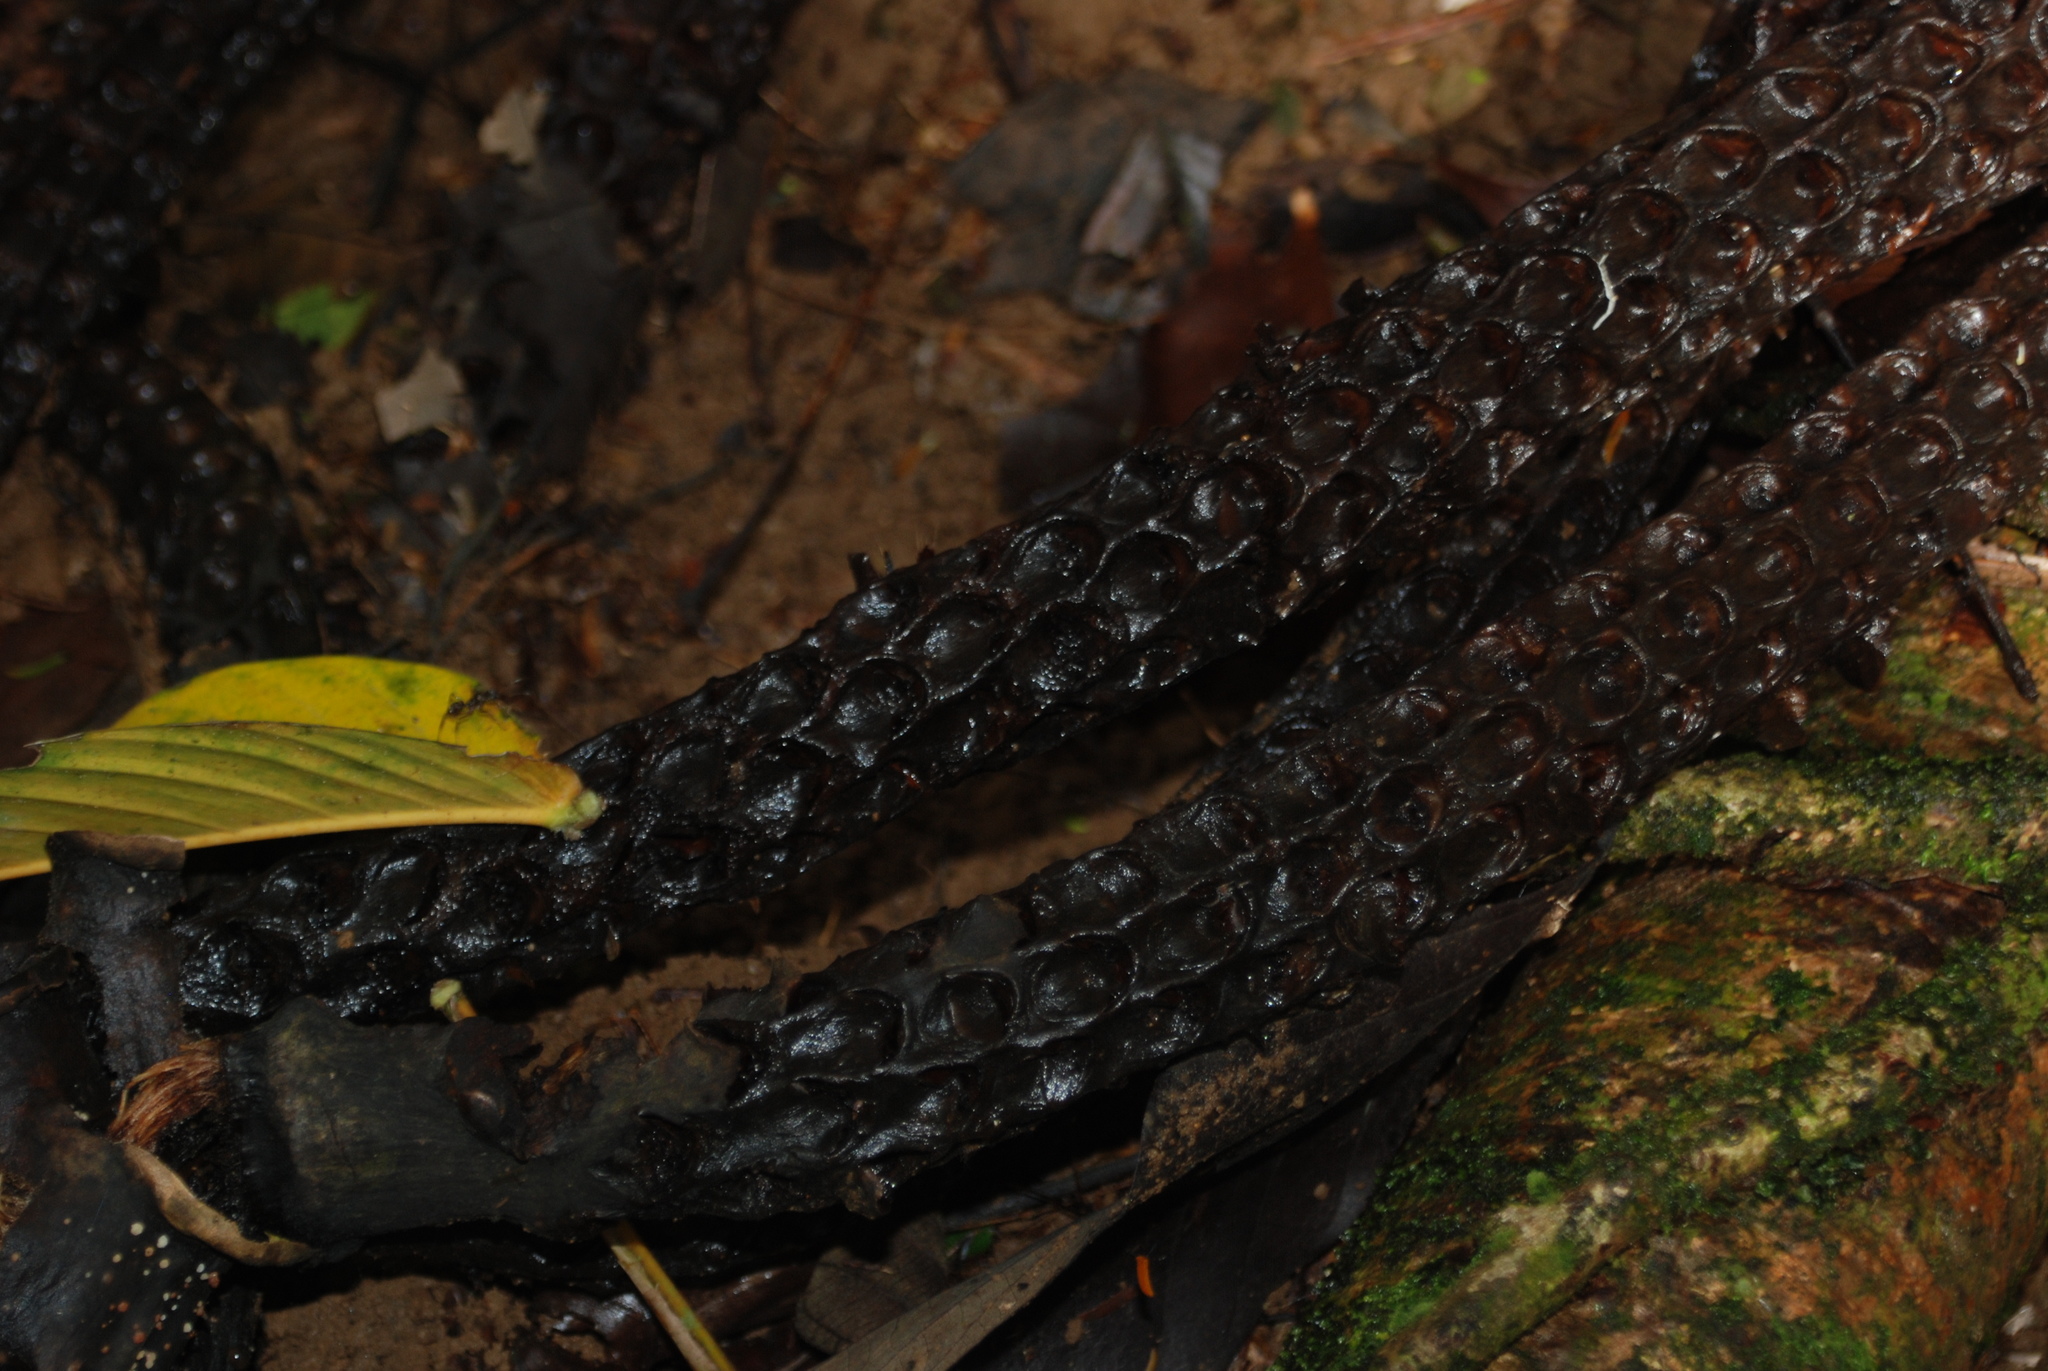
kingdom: Plantae
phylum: Tracheophyta
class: Liliopsida
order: Arecales
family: Arecaceae
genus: Welfia
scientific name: Welfia regia
